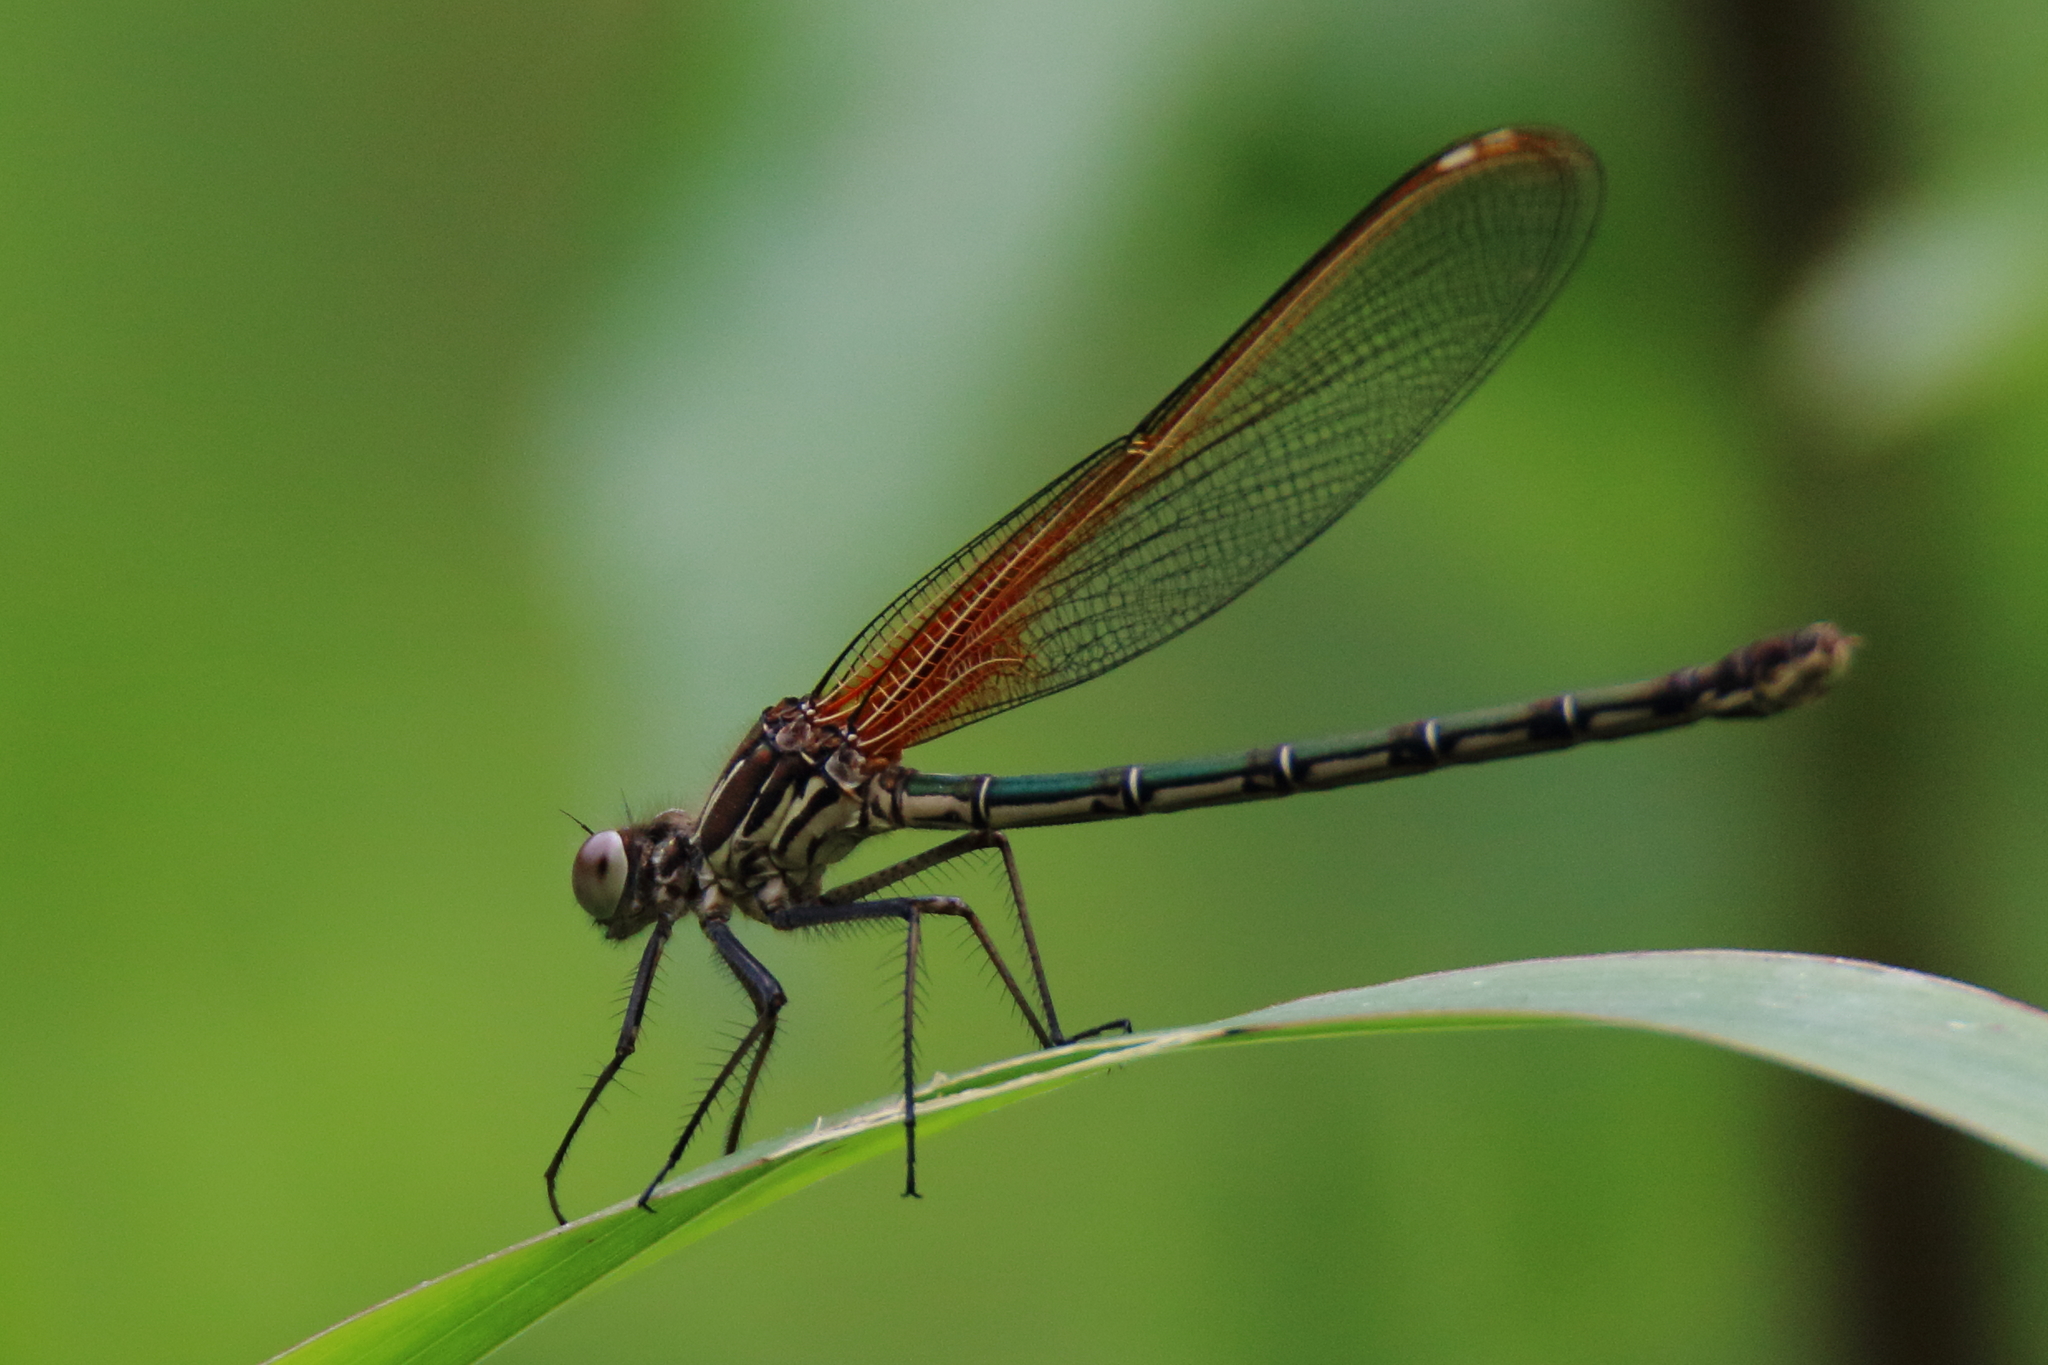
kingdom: Animalia
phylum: Arthropoda
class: Insecta
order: Odonata
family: Calopterygidae
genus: Hetaerina
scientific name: Hetaerina americana
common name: American rubyspot
